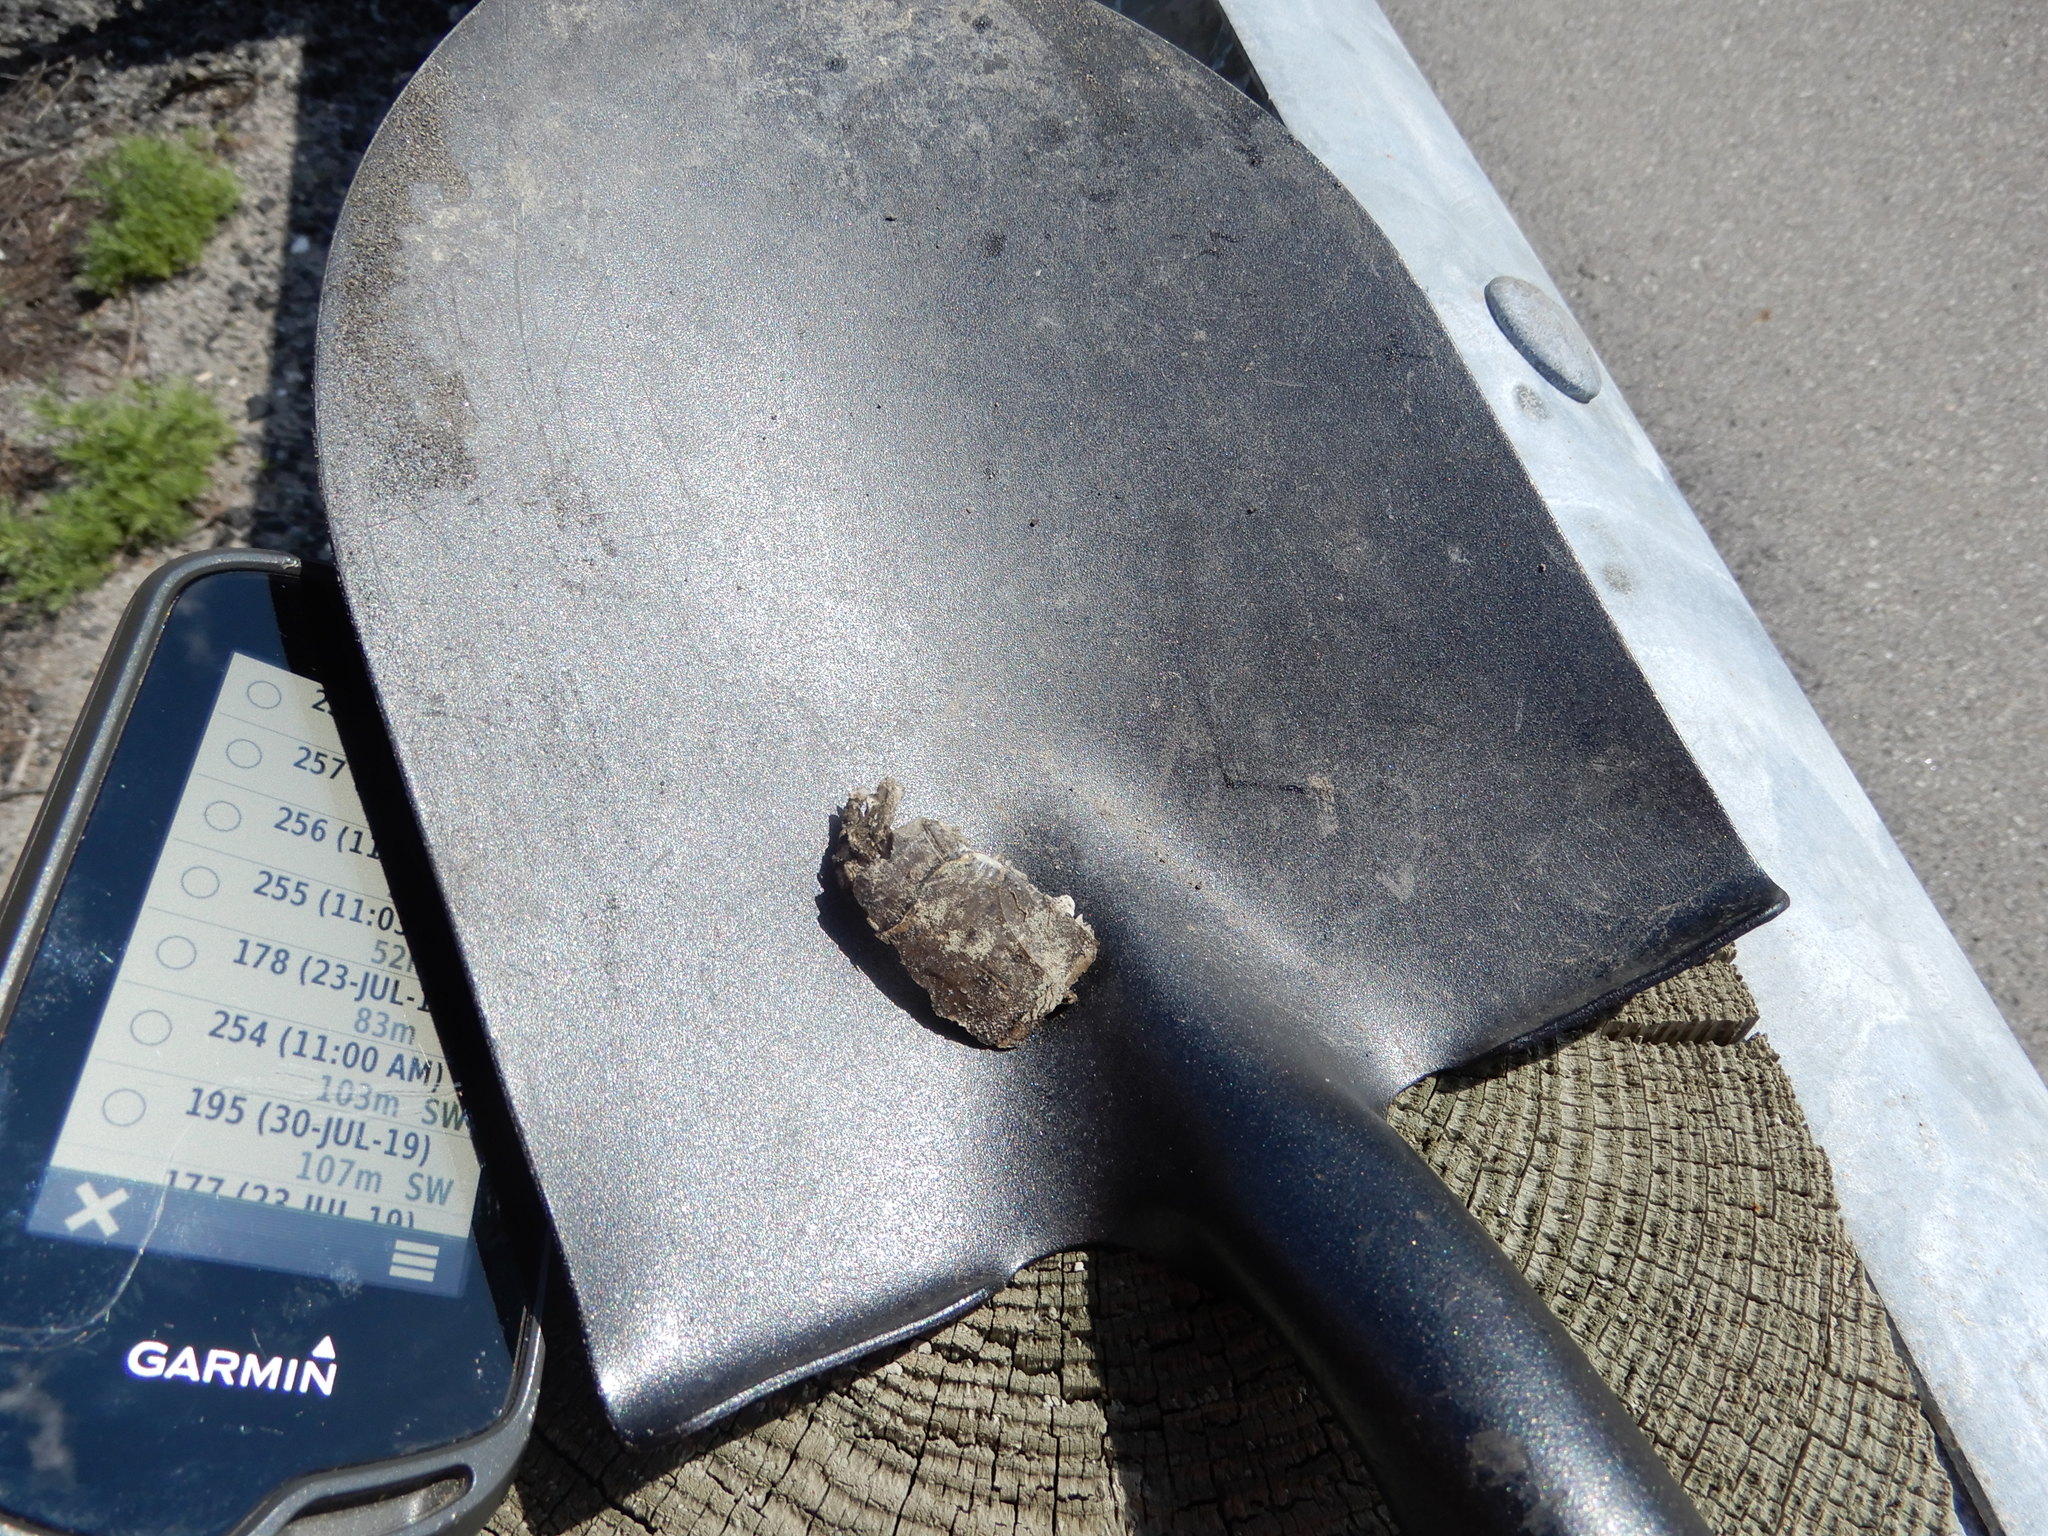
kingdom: Animalia
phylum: Chordata
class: Testudines
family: Chelydridae
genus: Chelydra
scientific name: Chelydra serpentina
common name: Common snapping turtle
